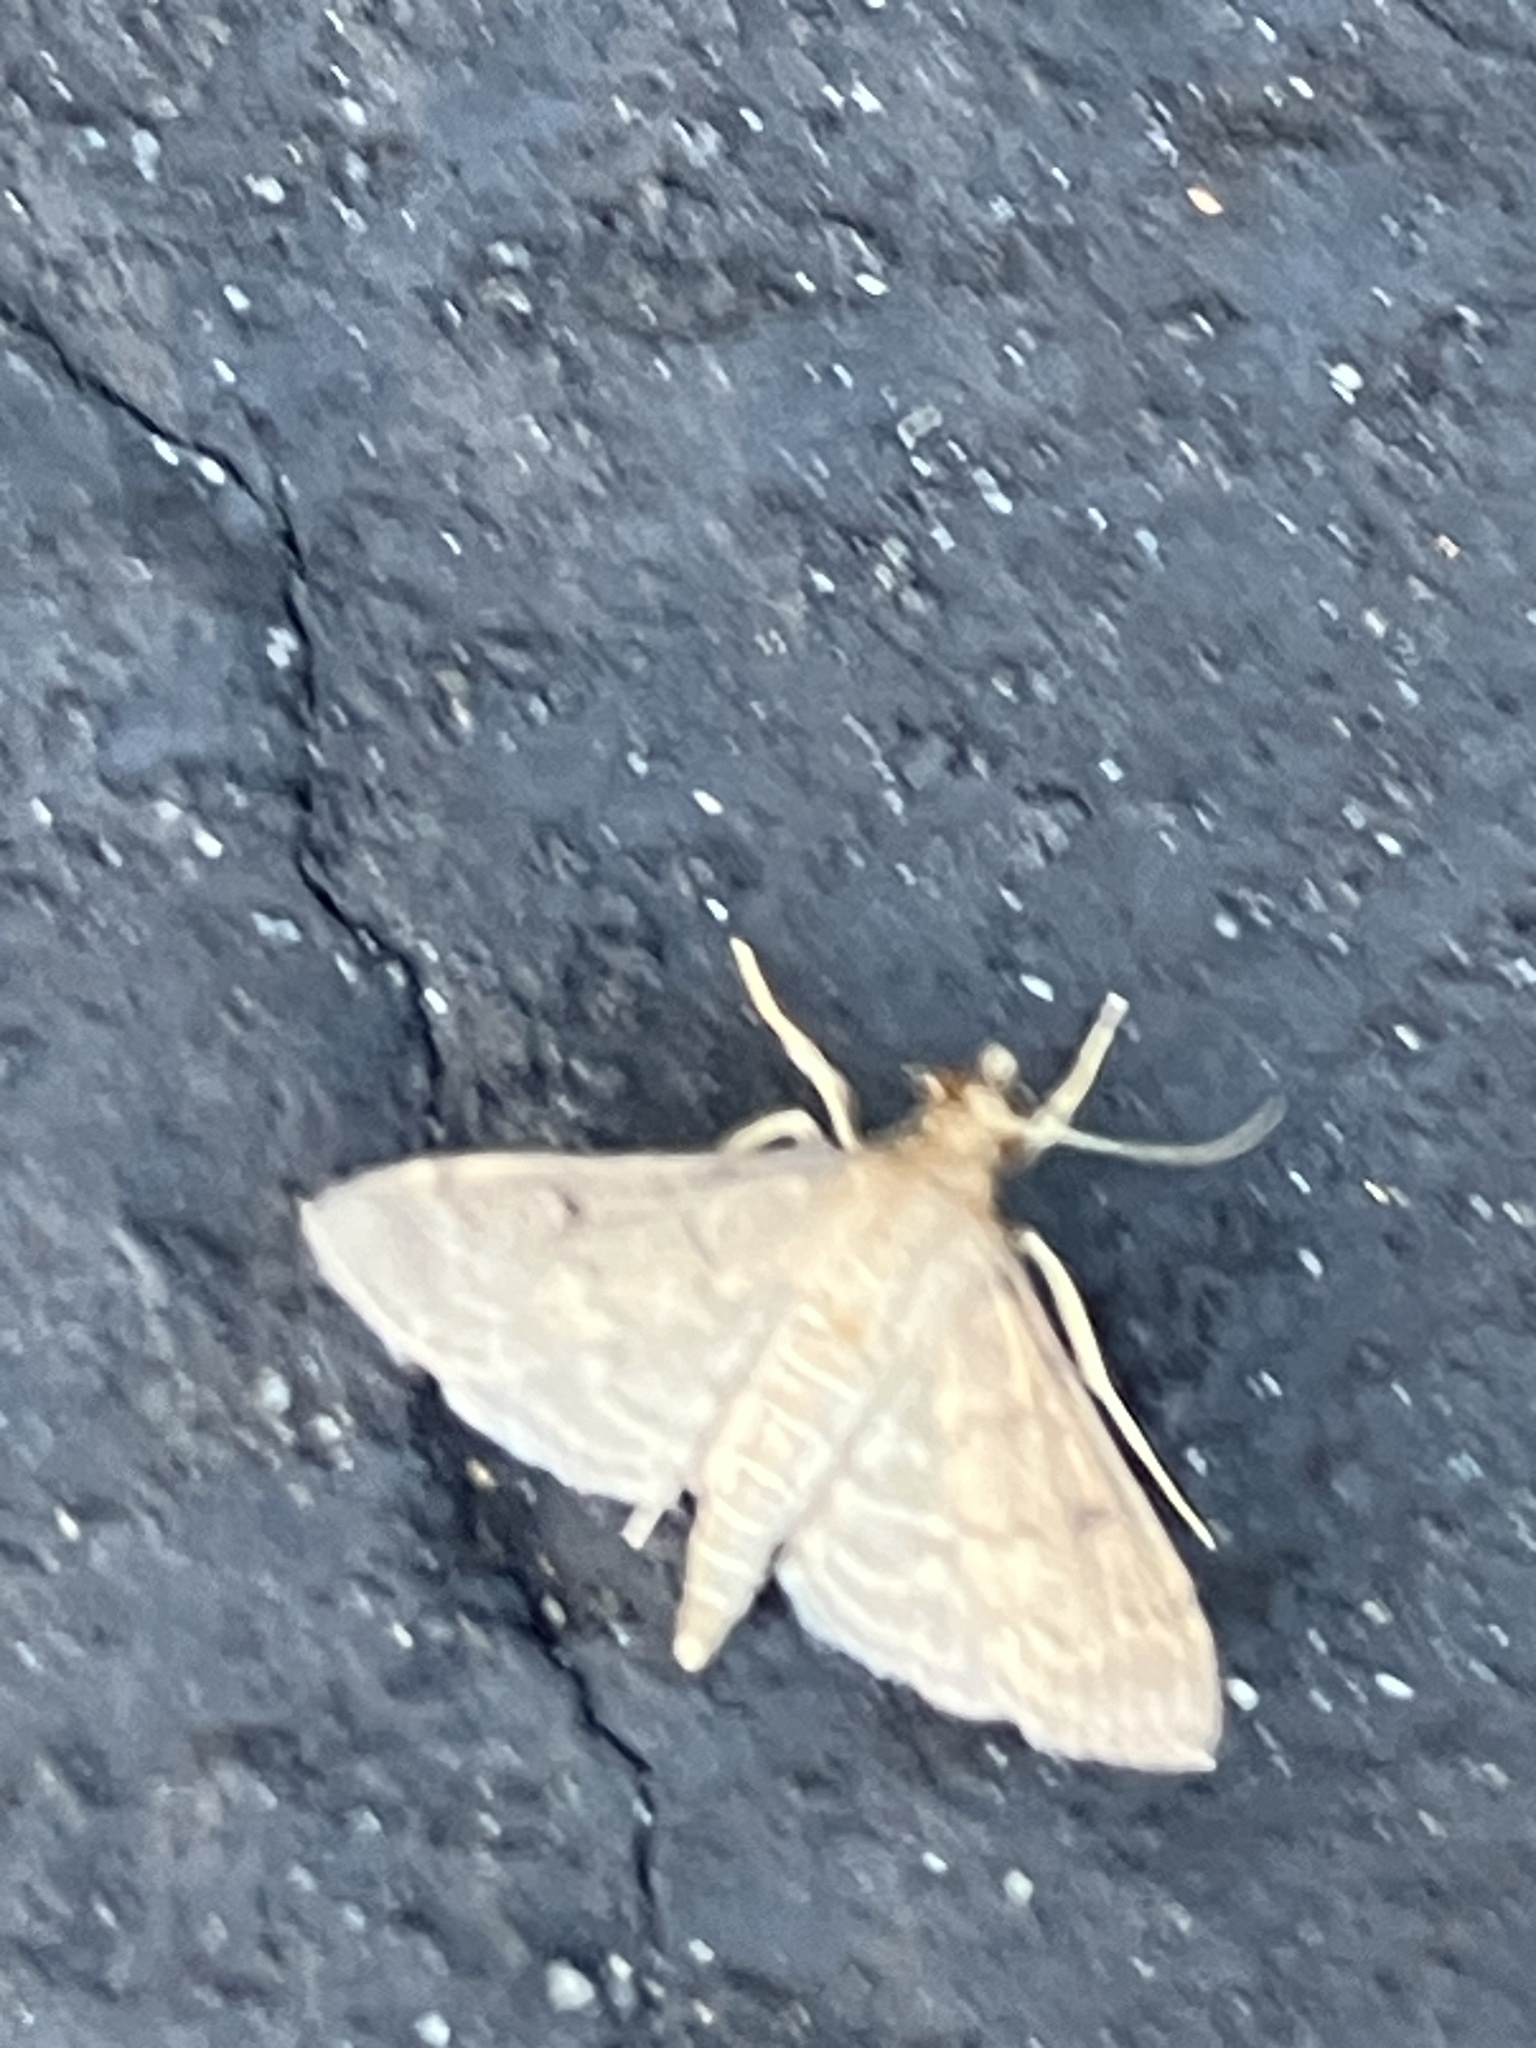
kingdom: Animalia
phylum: Arthropoda
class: Insecta
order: Lepidoptera
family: Crambidae
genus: Herpetogramma
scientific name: Herpetogramma phaeopteralis
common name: Dusky herpetogramma moth
